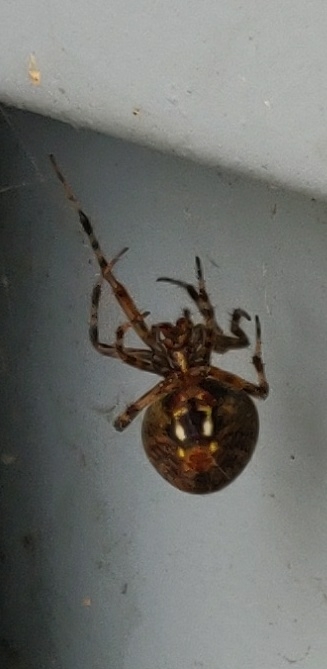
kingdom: Animalia
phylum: Arthropoda
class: Arachnida
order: Araneae
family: Araneidae
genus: Neoscona
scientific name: Neoscona crucifera
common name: Spotted orbweaver
